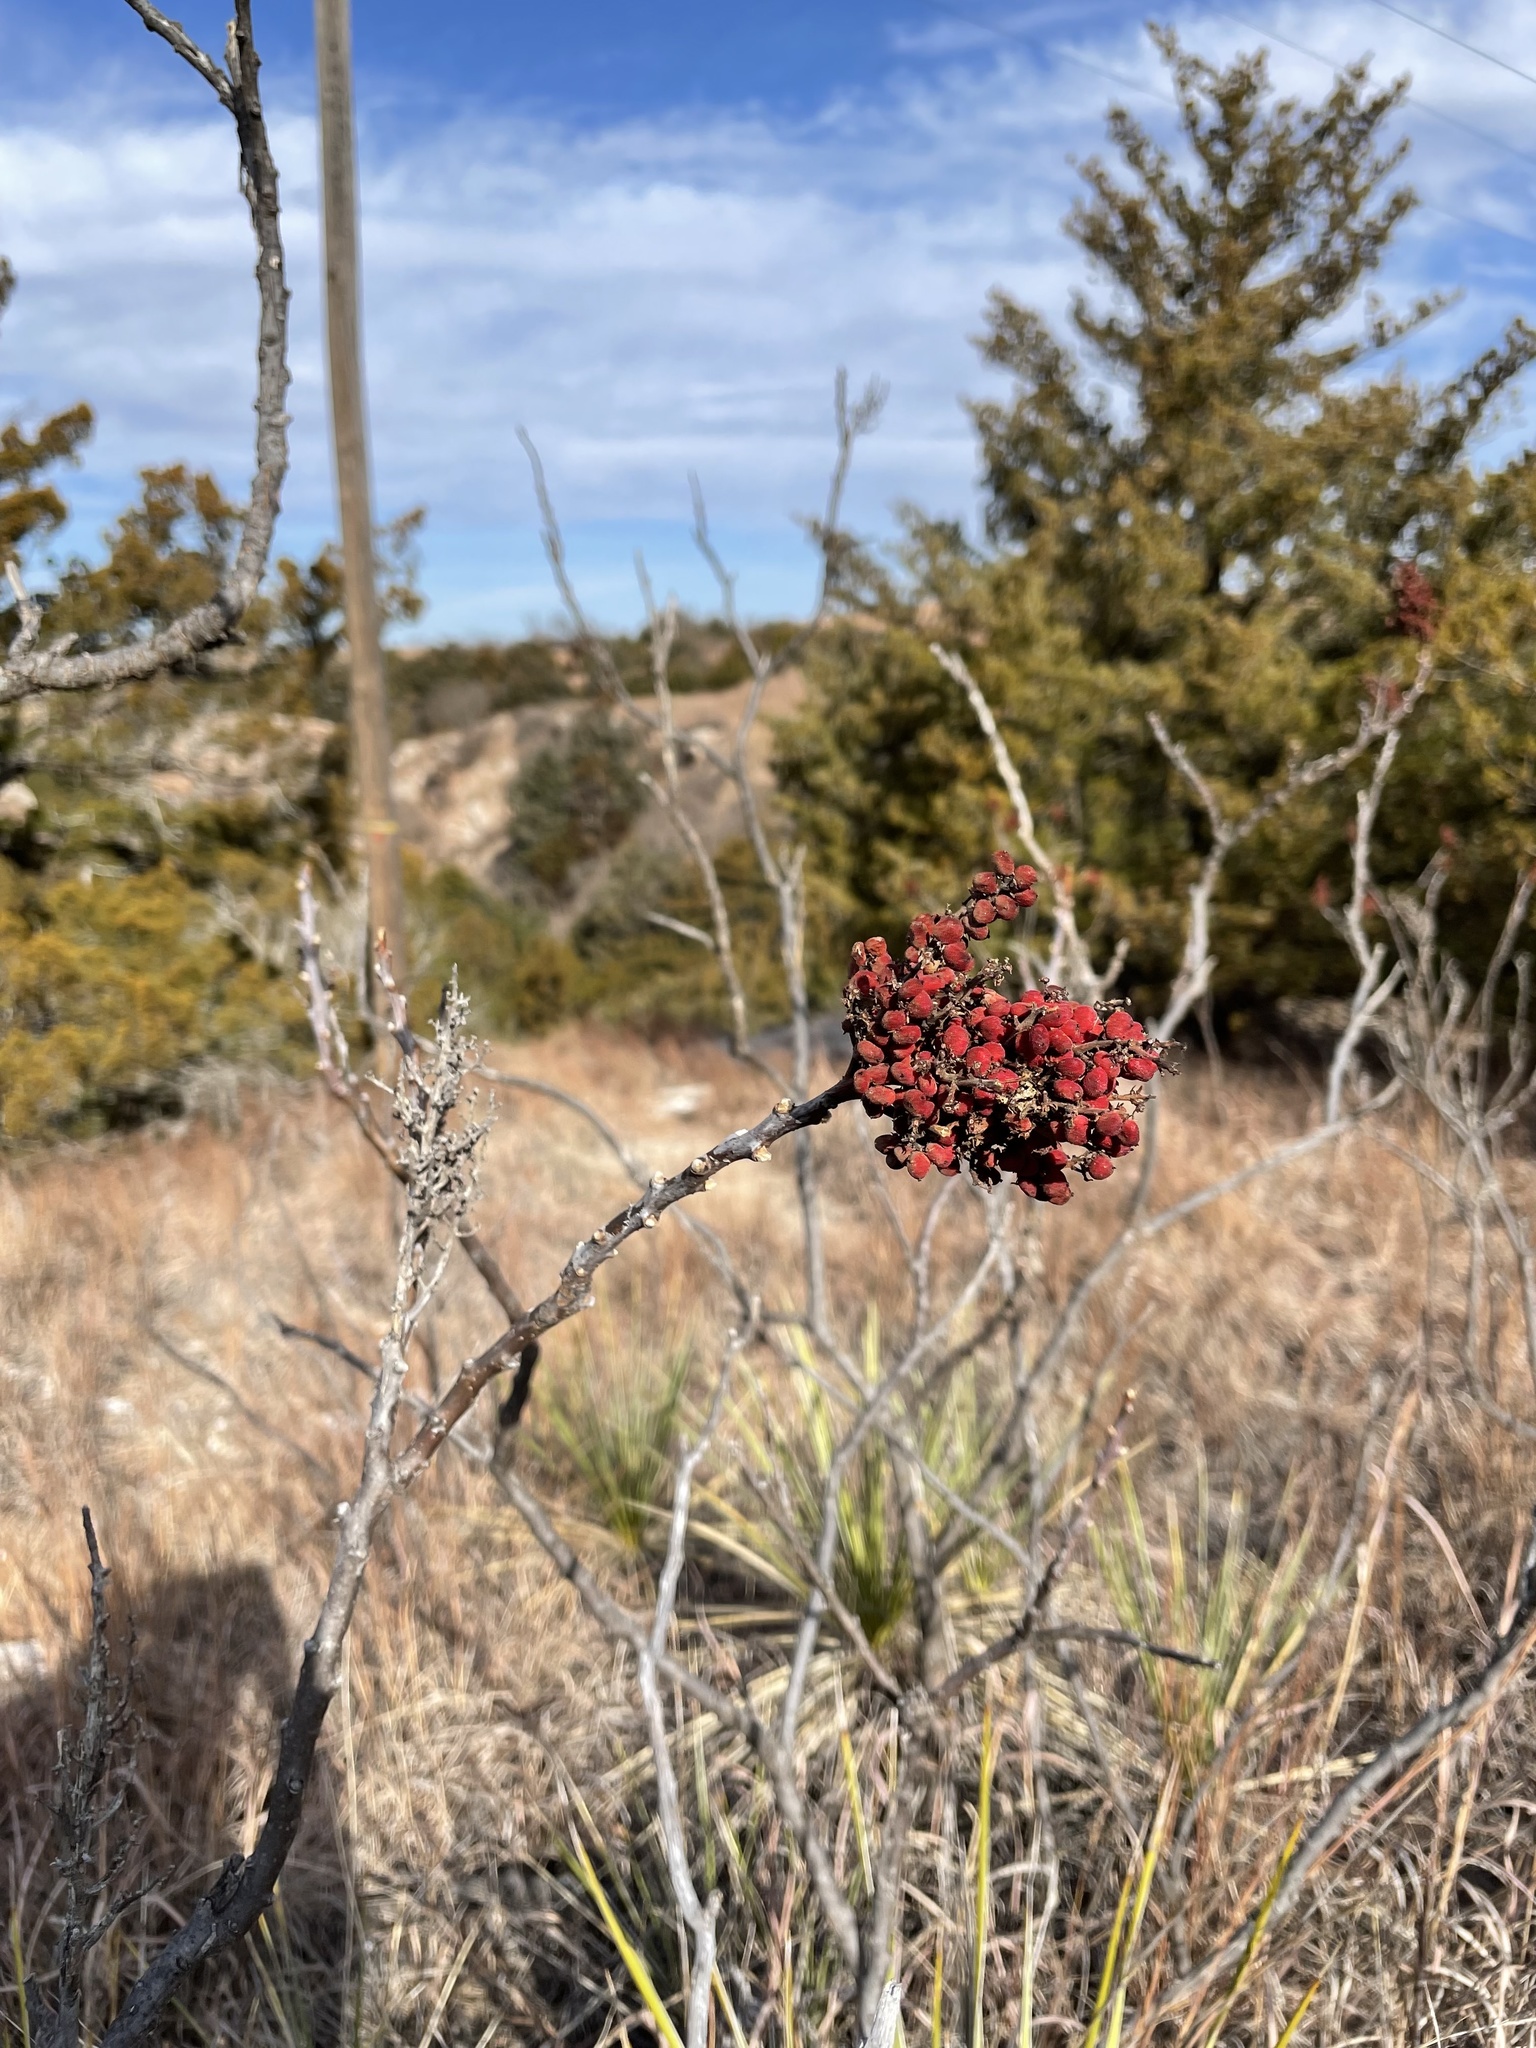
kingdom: Plantae
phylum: Tracheophyta
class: Magnoliopsida
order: Sapindales
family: Anacardiaceae
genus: Rhus
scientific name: Rhus glabra
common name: Scarlet sumac
